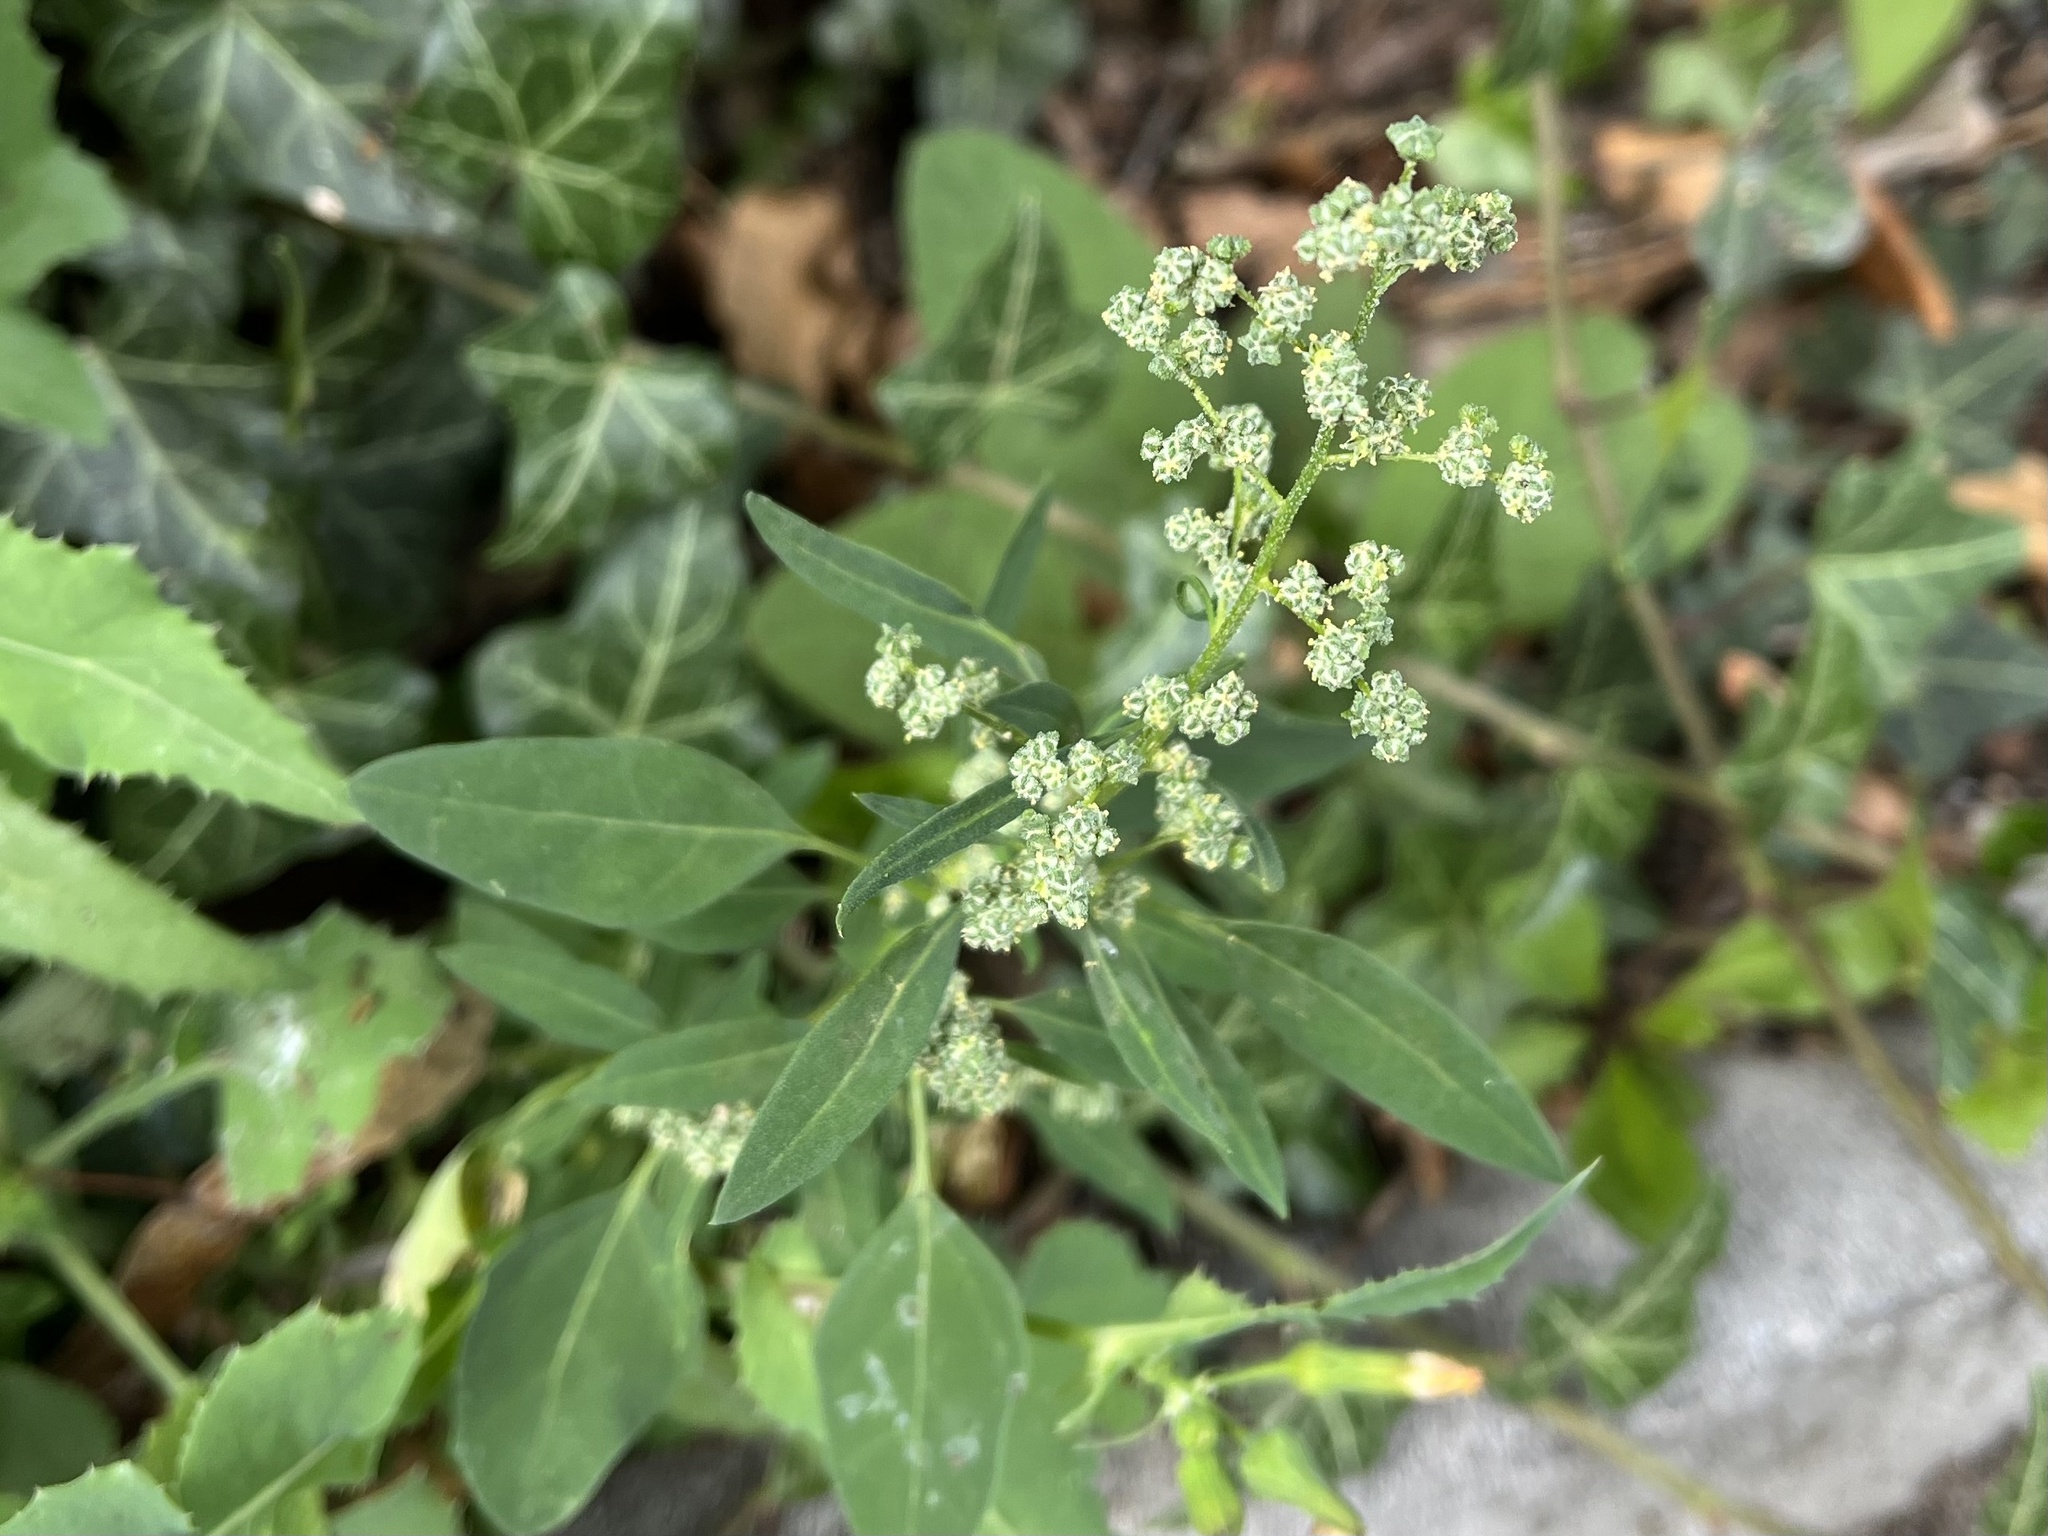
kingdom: Plantae
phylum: Tracheophyta
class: Magnoliopsida
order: Caryophyllales
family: Amaranthaceae
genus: Chenopodium
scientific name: Chenopodium album
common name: Fat-hen
